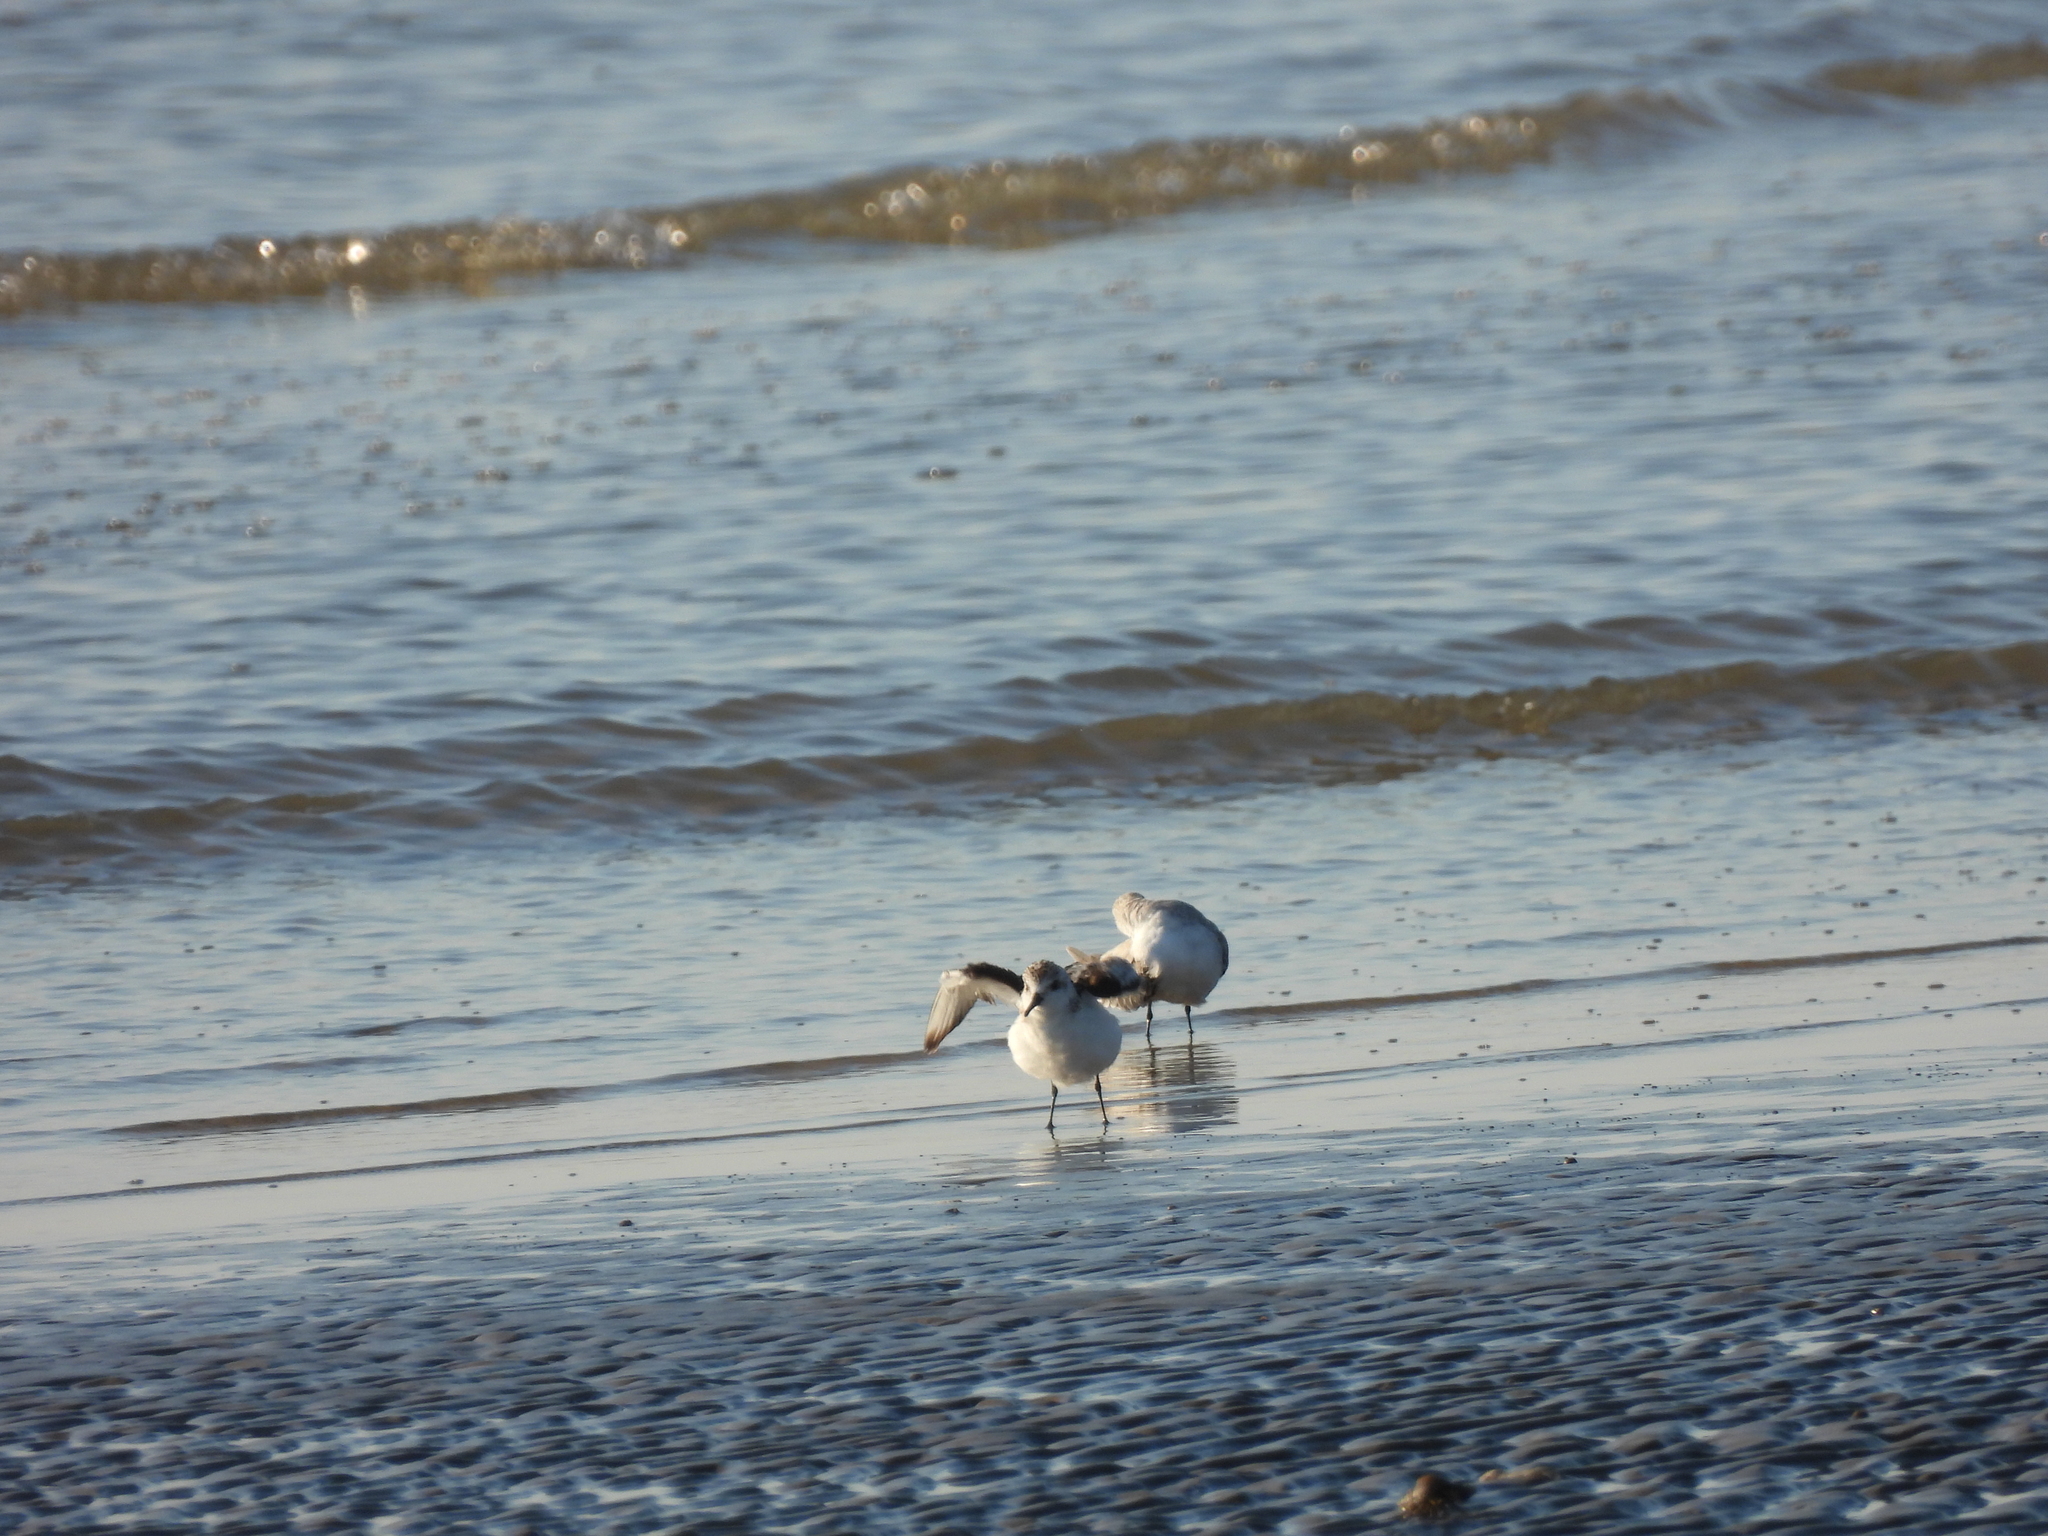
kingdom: Animalia
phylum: Chordata
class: Aves
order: Charadriiformes
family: Scolopacidae
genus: Calidris
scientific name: Calidris alba
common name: Sanderling
